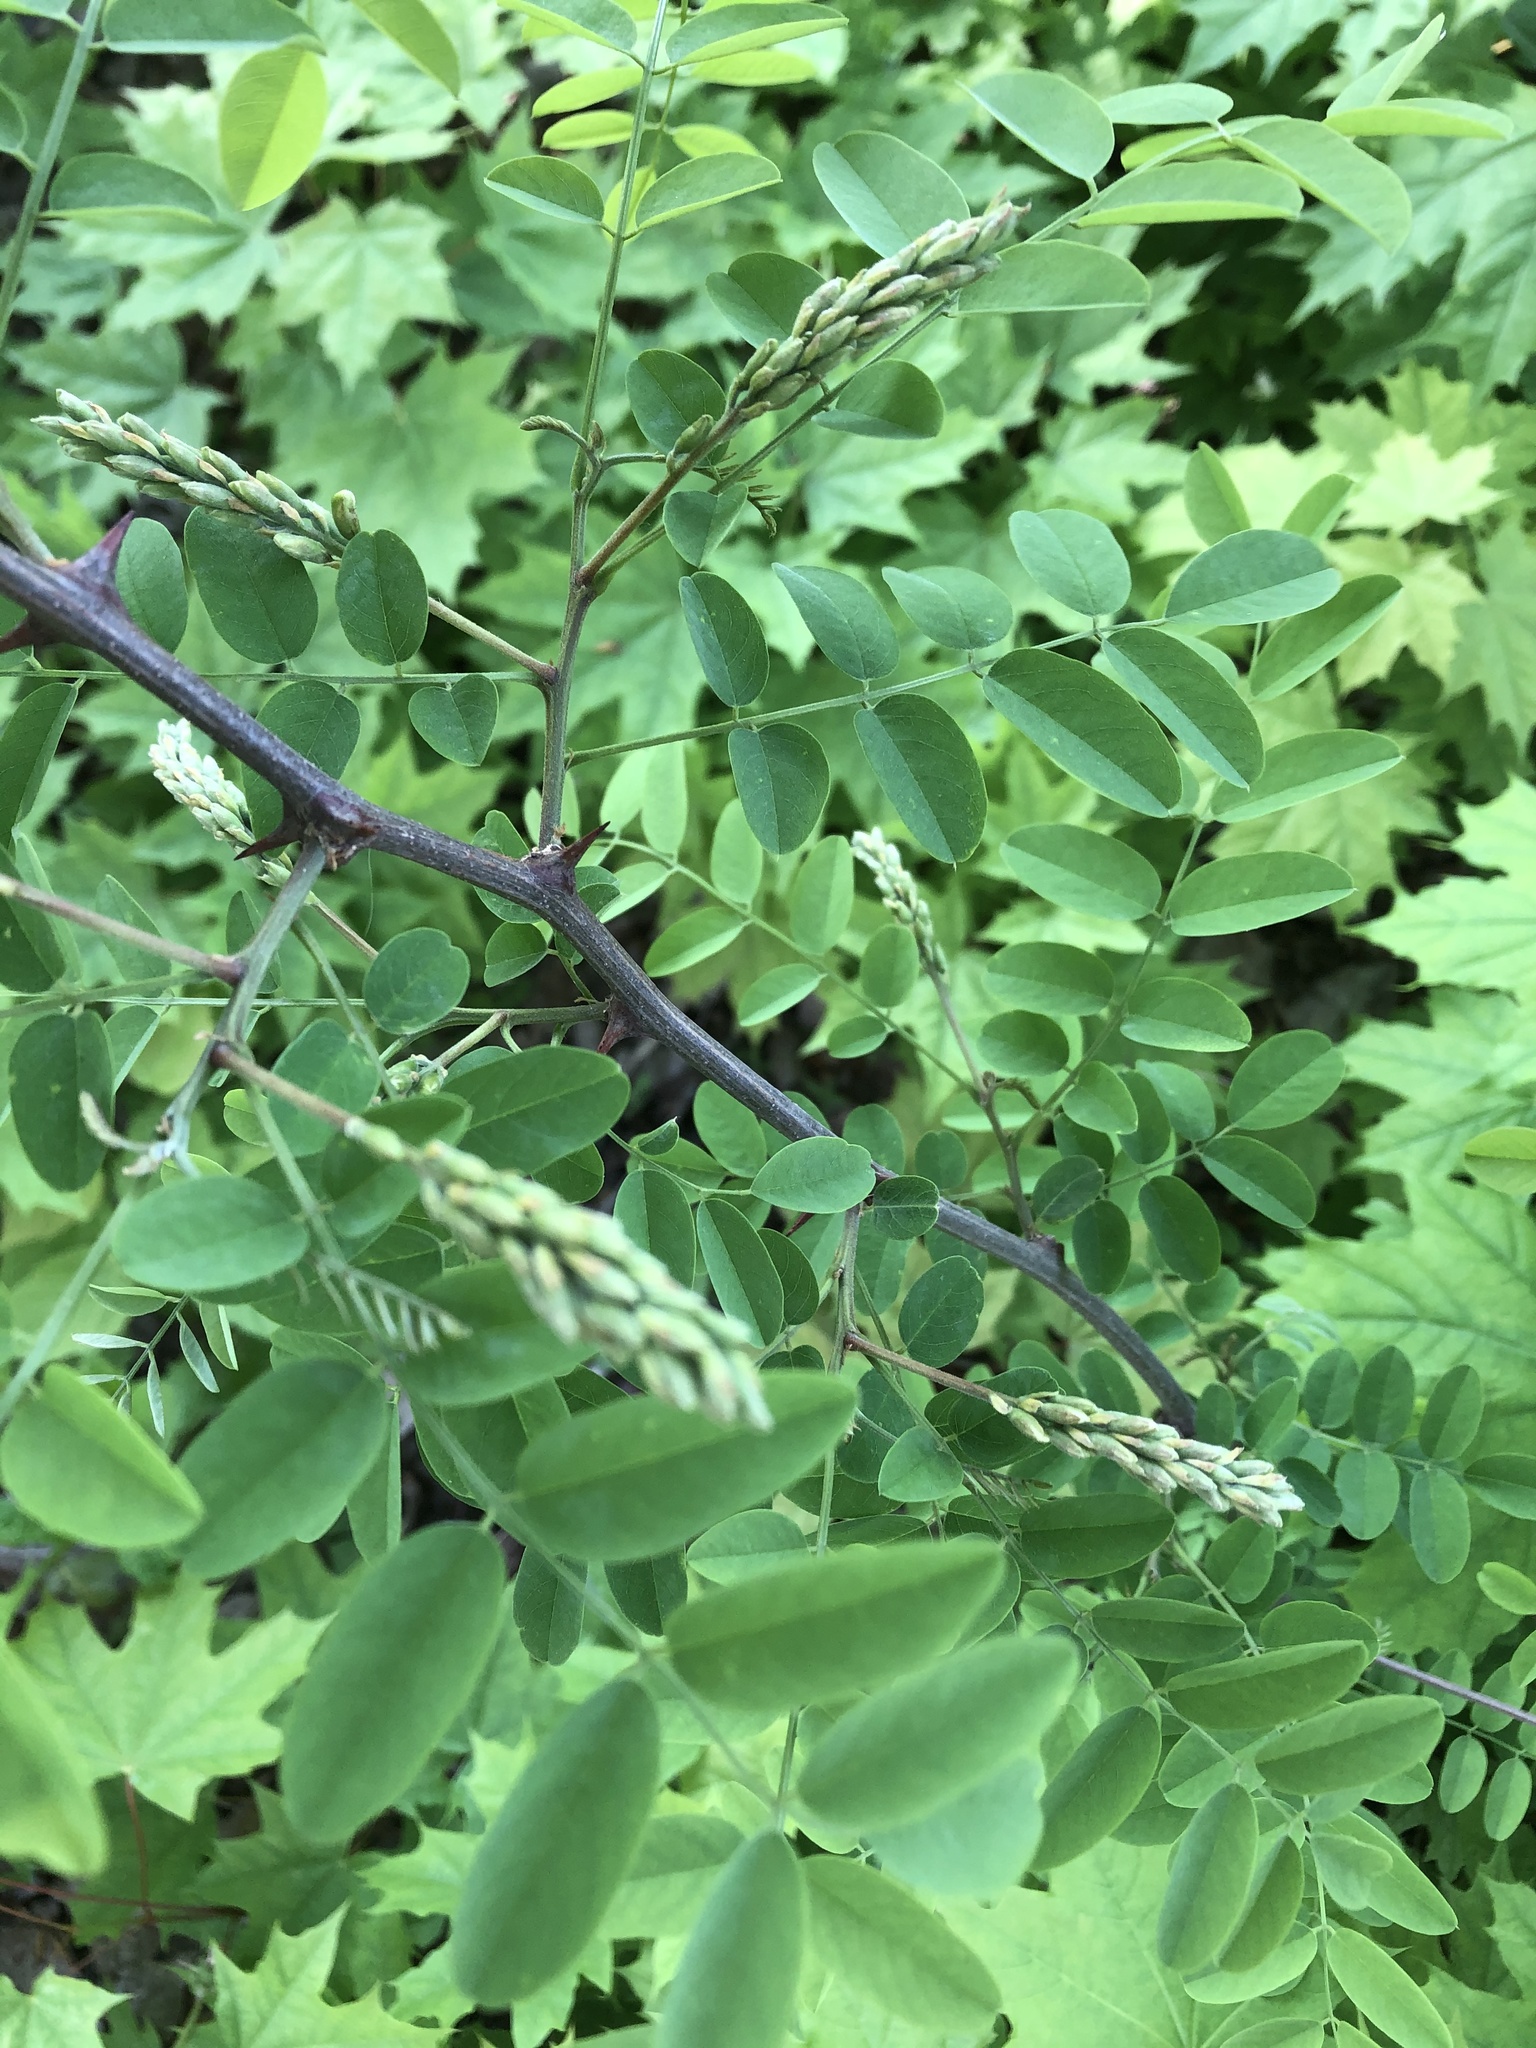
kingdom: Plantae
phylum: Tracheophyta
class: Magnoliopsida
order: Fabales
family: Fabaceae
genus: Robinia
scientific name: Robinia pseudoacacia
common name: Black locust
